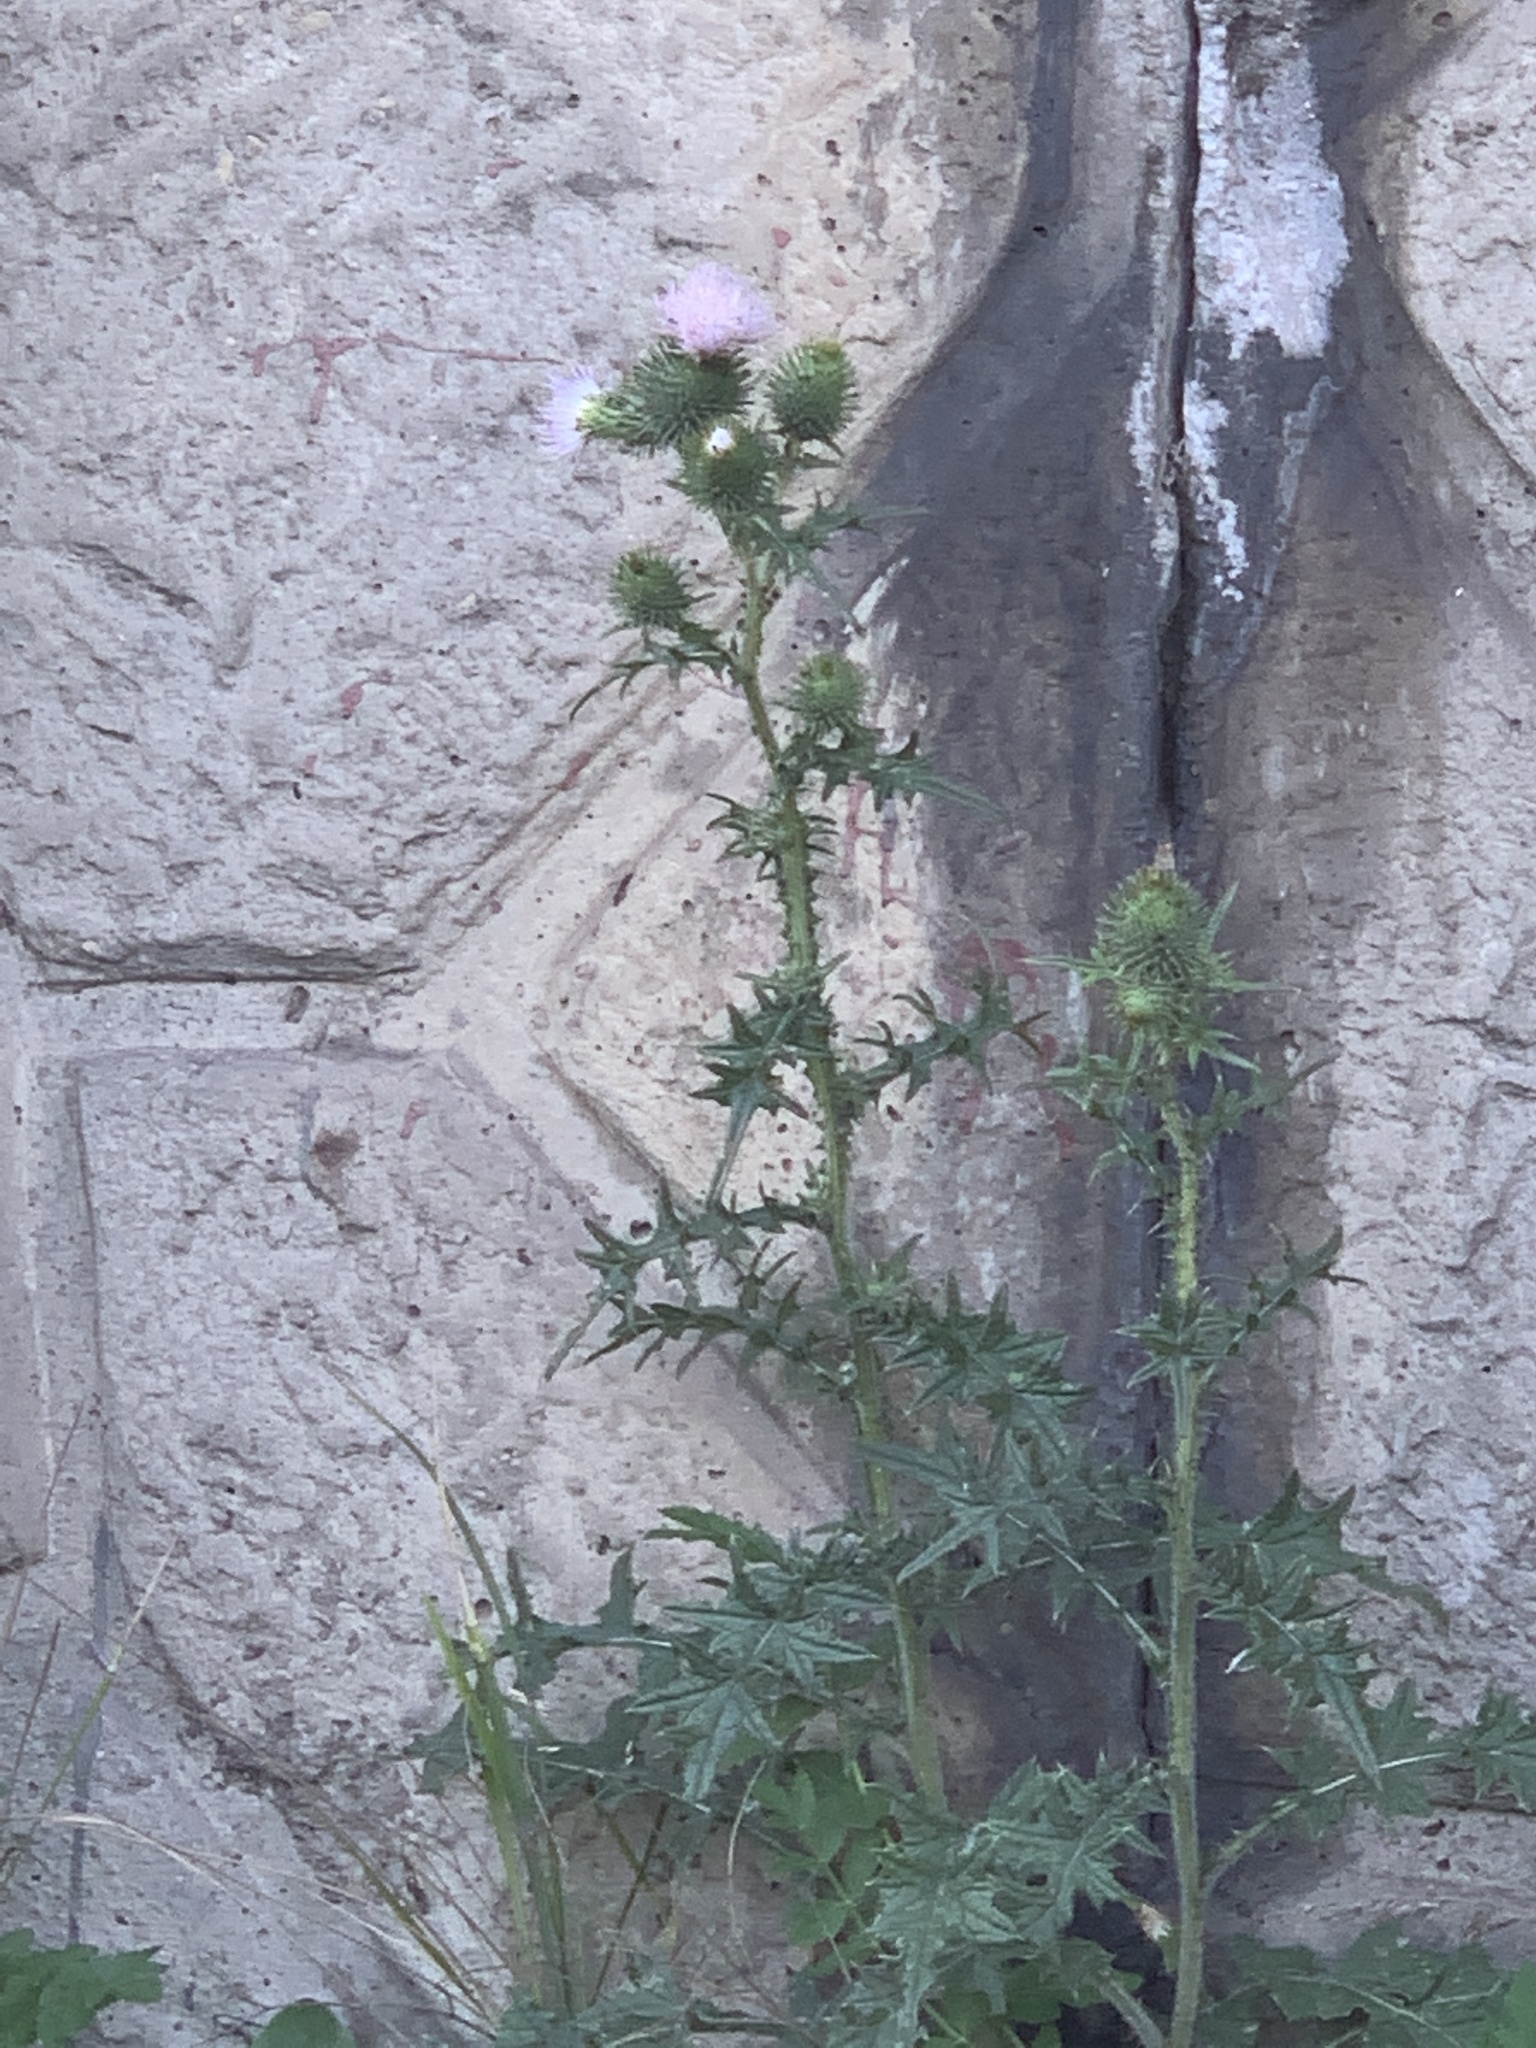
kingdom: Plantae
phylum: Tracheophyta
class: Magnoliopsida
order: Asterales
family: Asteraceae
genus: Cirsium
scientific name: Cirsium vulgare
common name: Bull thistle
